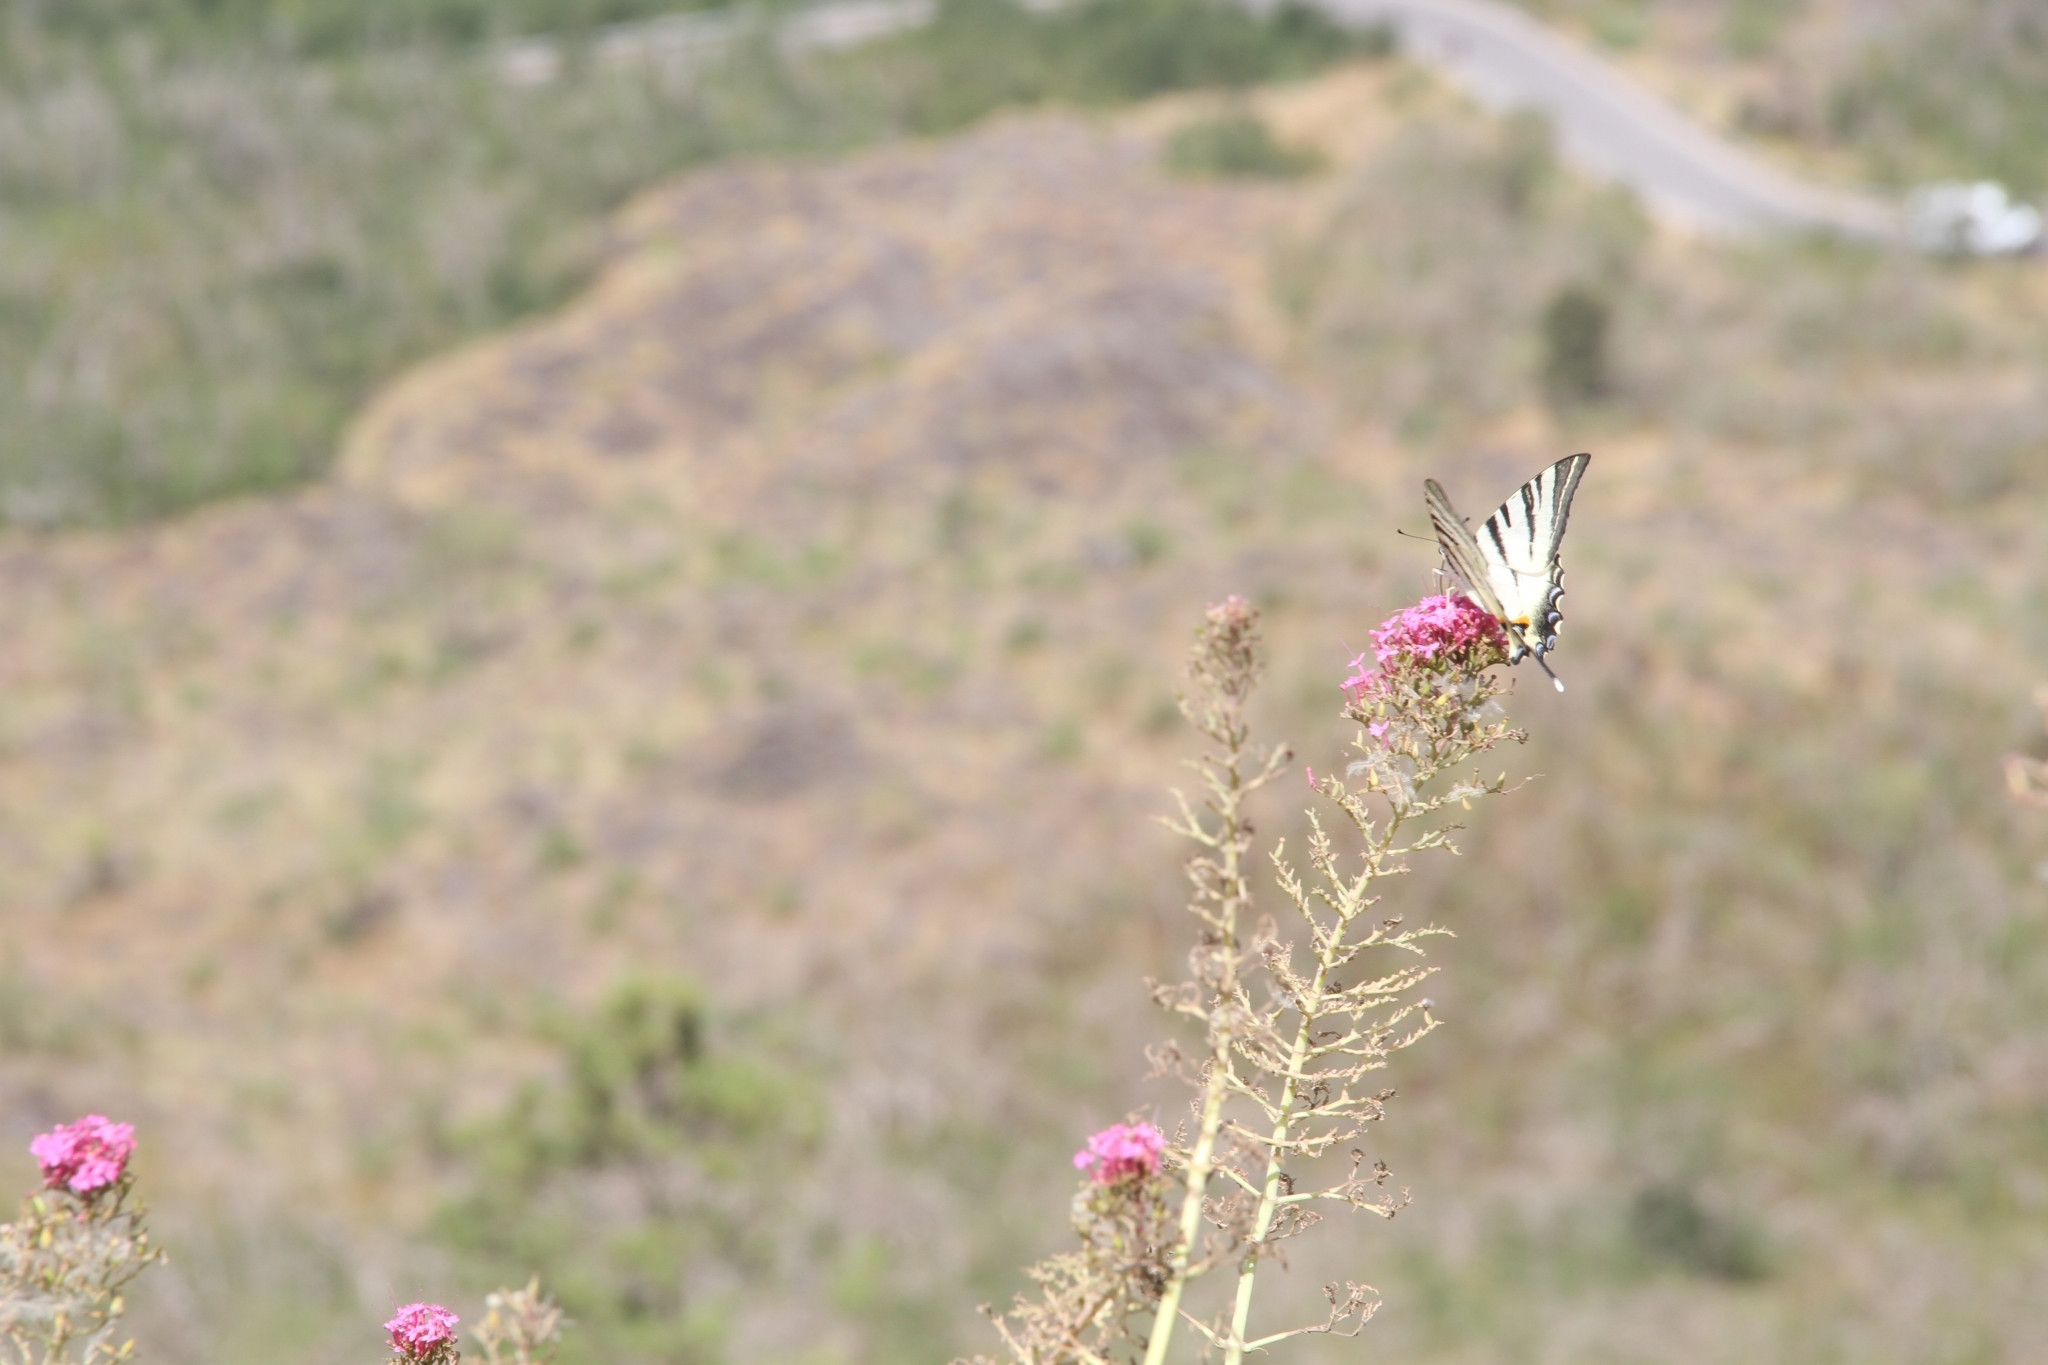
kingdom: Animalia
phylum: Arthropoda
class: Insecta
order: Lepidoptera
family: Papilionidae
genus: Iphiclides
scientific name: Iphiclides podalirius
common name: Scarce swallowtail
